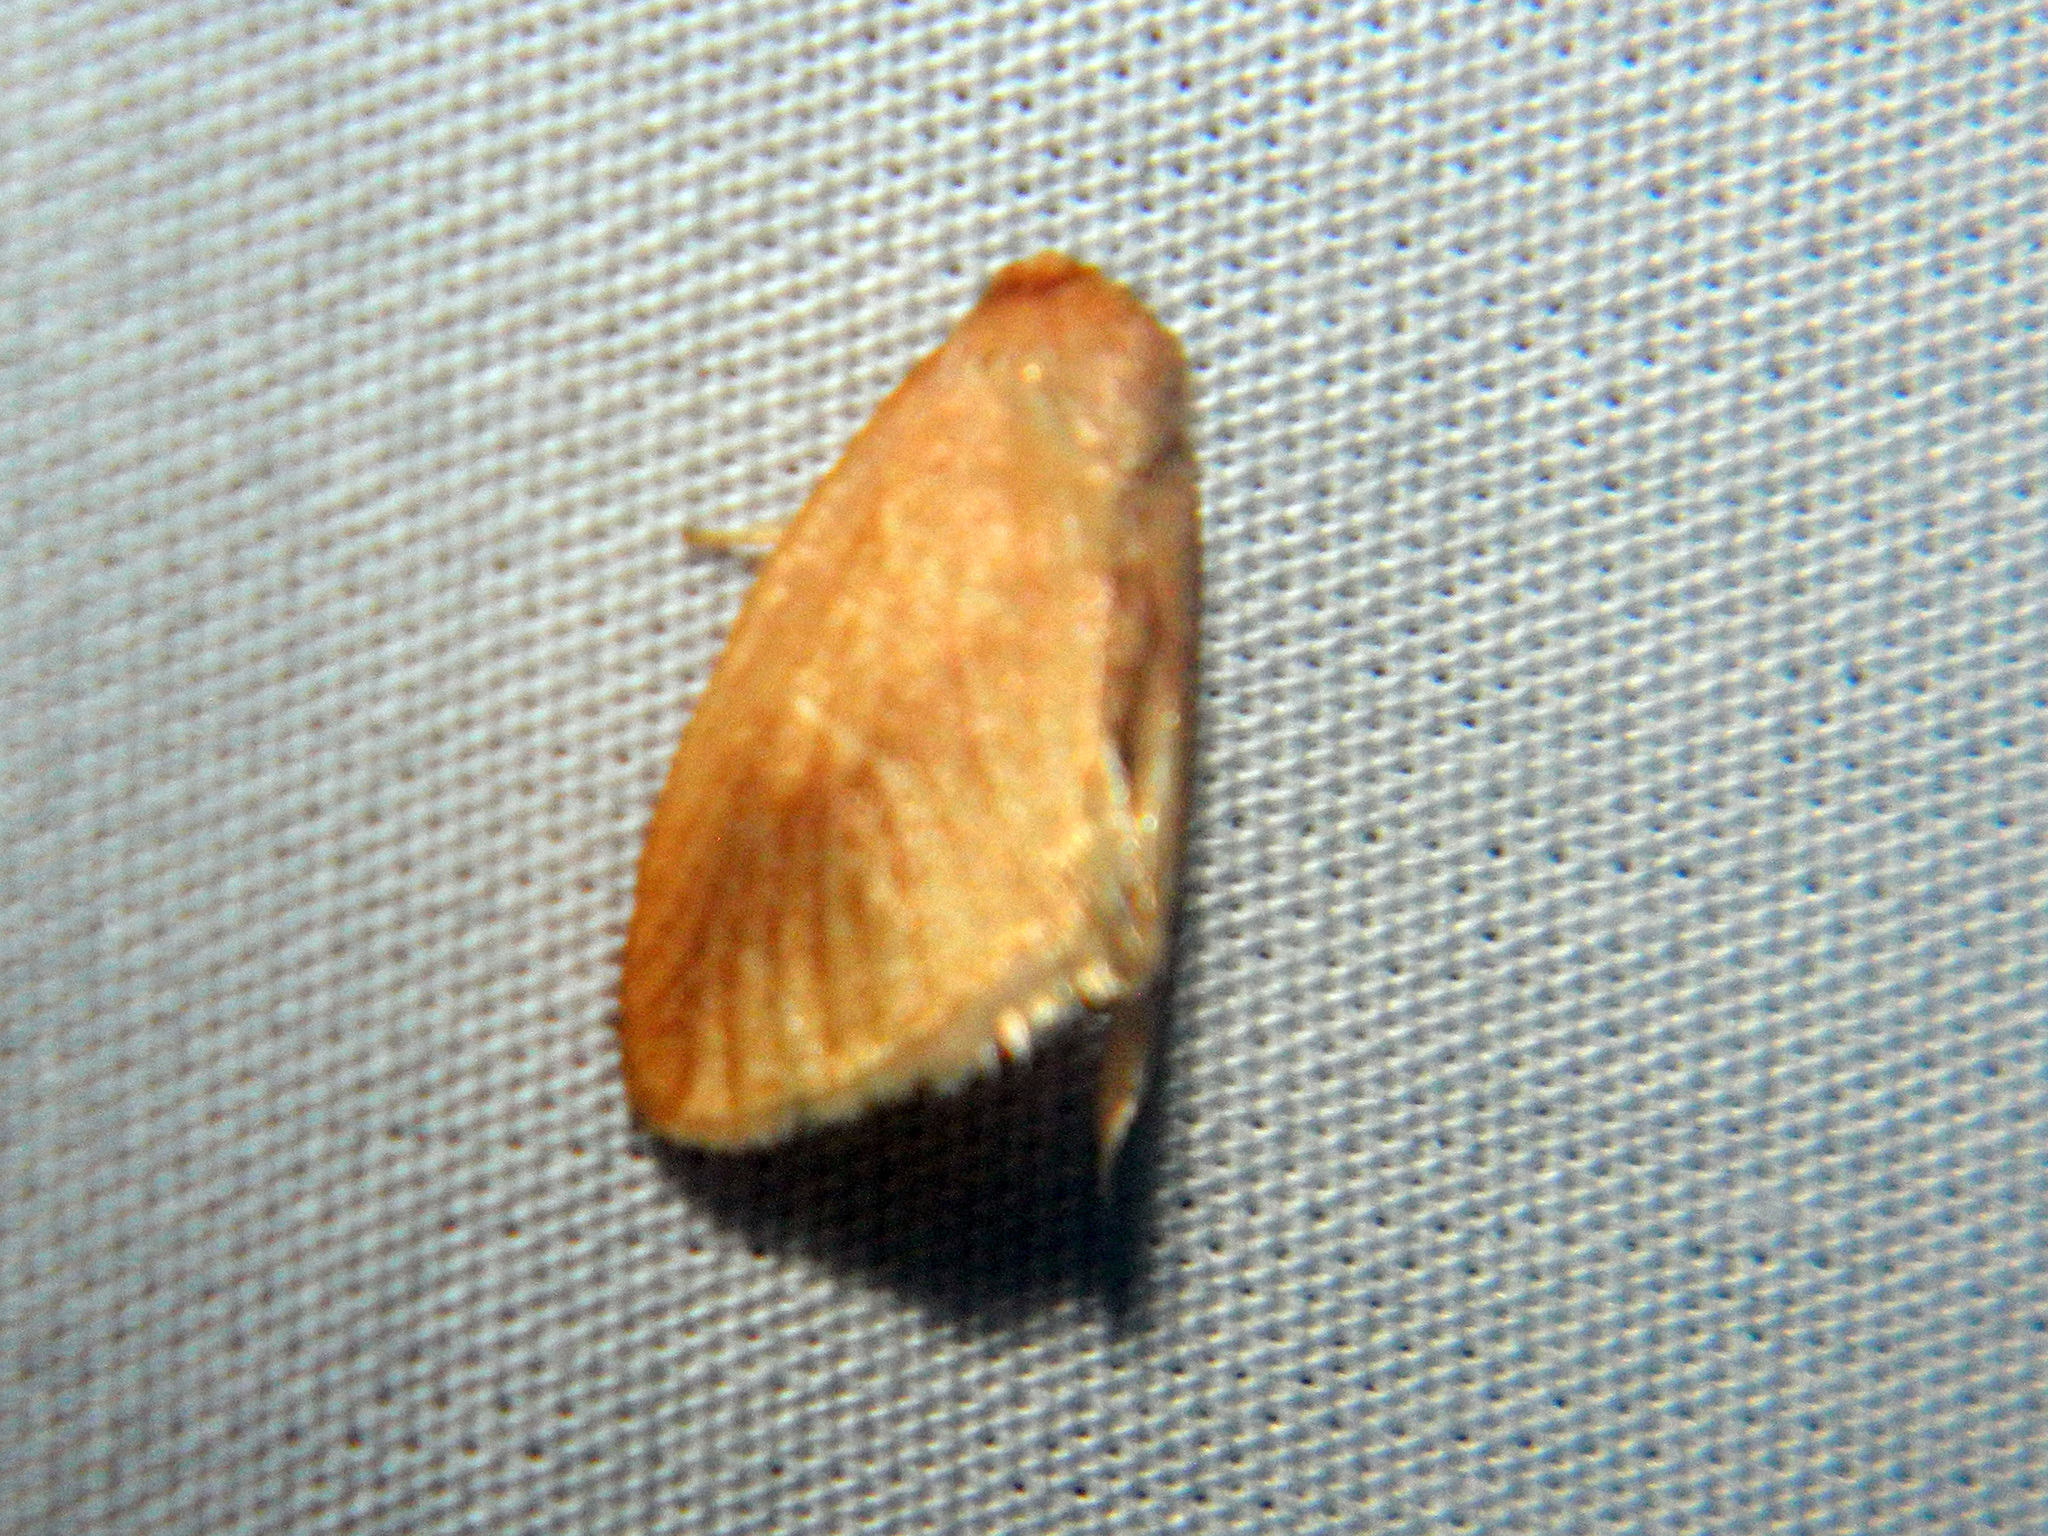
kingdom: Animalia
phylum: Arthropoda
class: Insecta
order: Lepidoptera
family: Limacodidae
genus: Tortricidia
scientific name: Tortricidia testacea
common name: Early button slug moth
